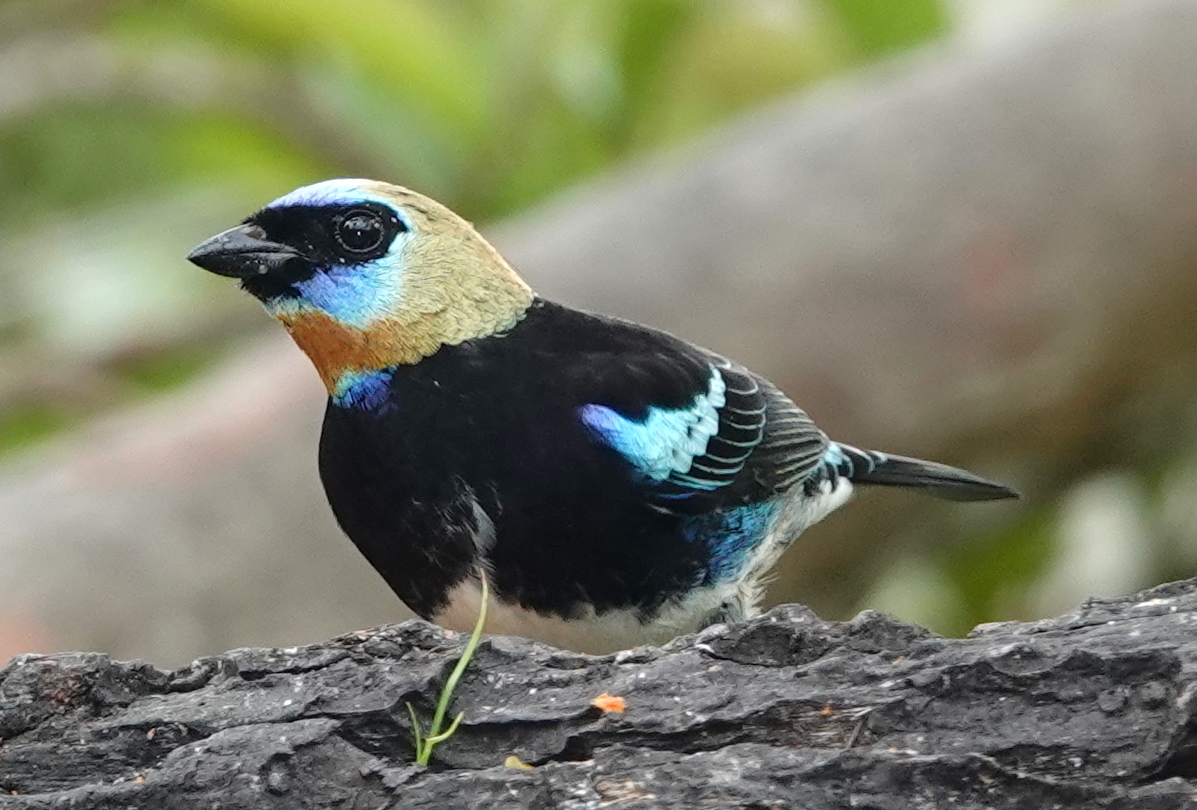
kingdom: Animalia
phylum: Chordata
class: Aves
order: Passeriformes
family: Thraupidae
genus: Stilpnia
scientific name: Stilpnia larvata
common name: Golden-hooded tanager
